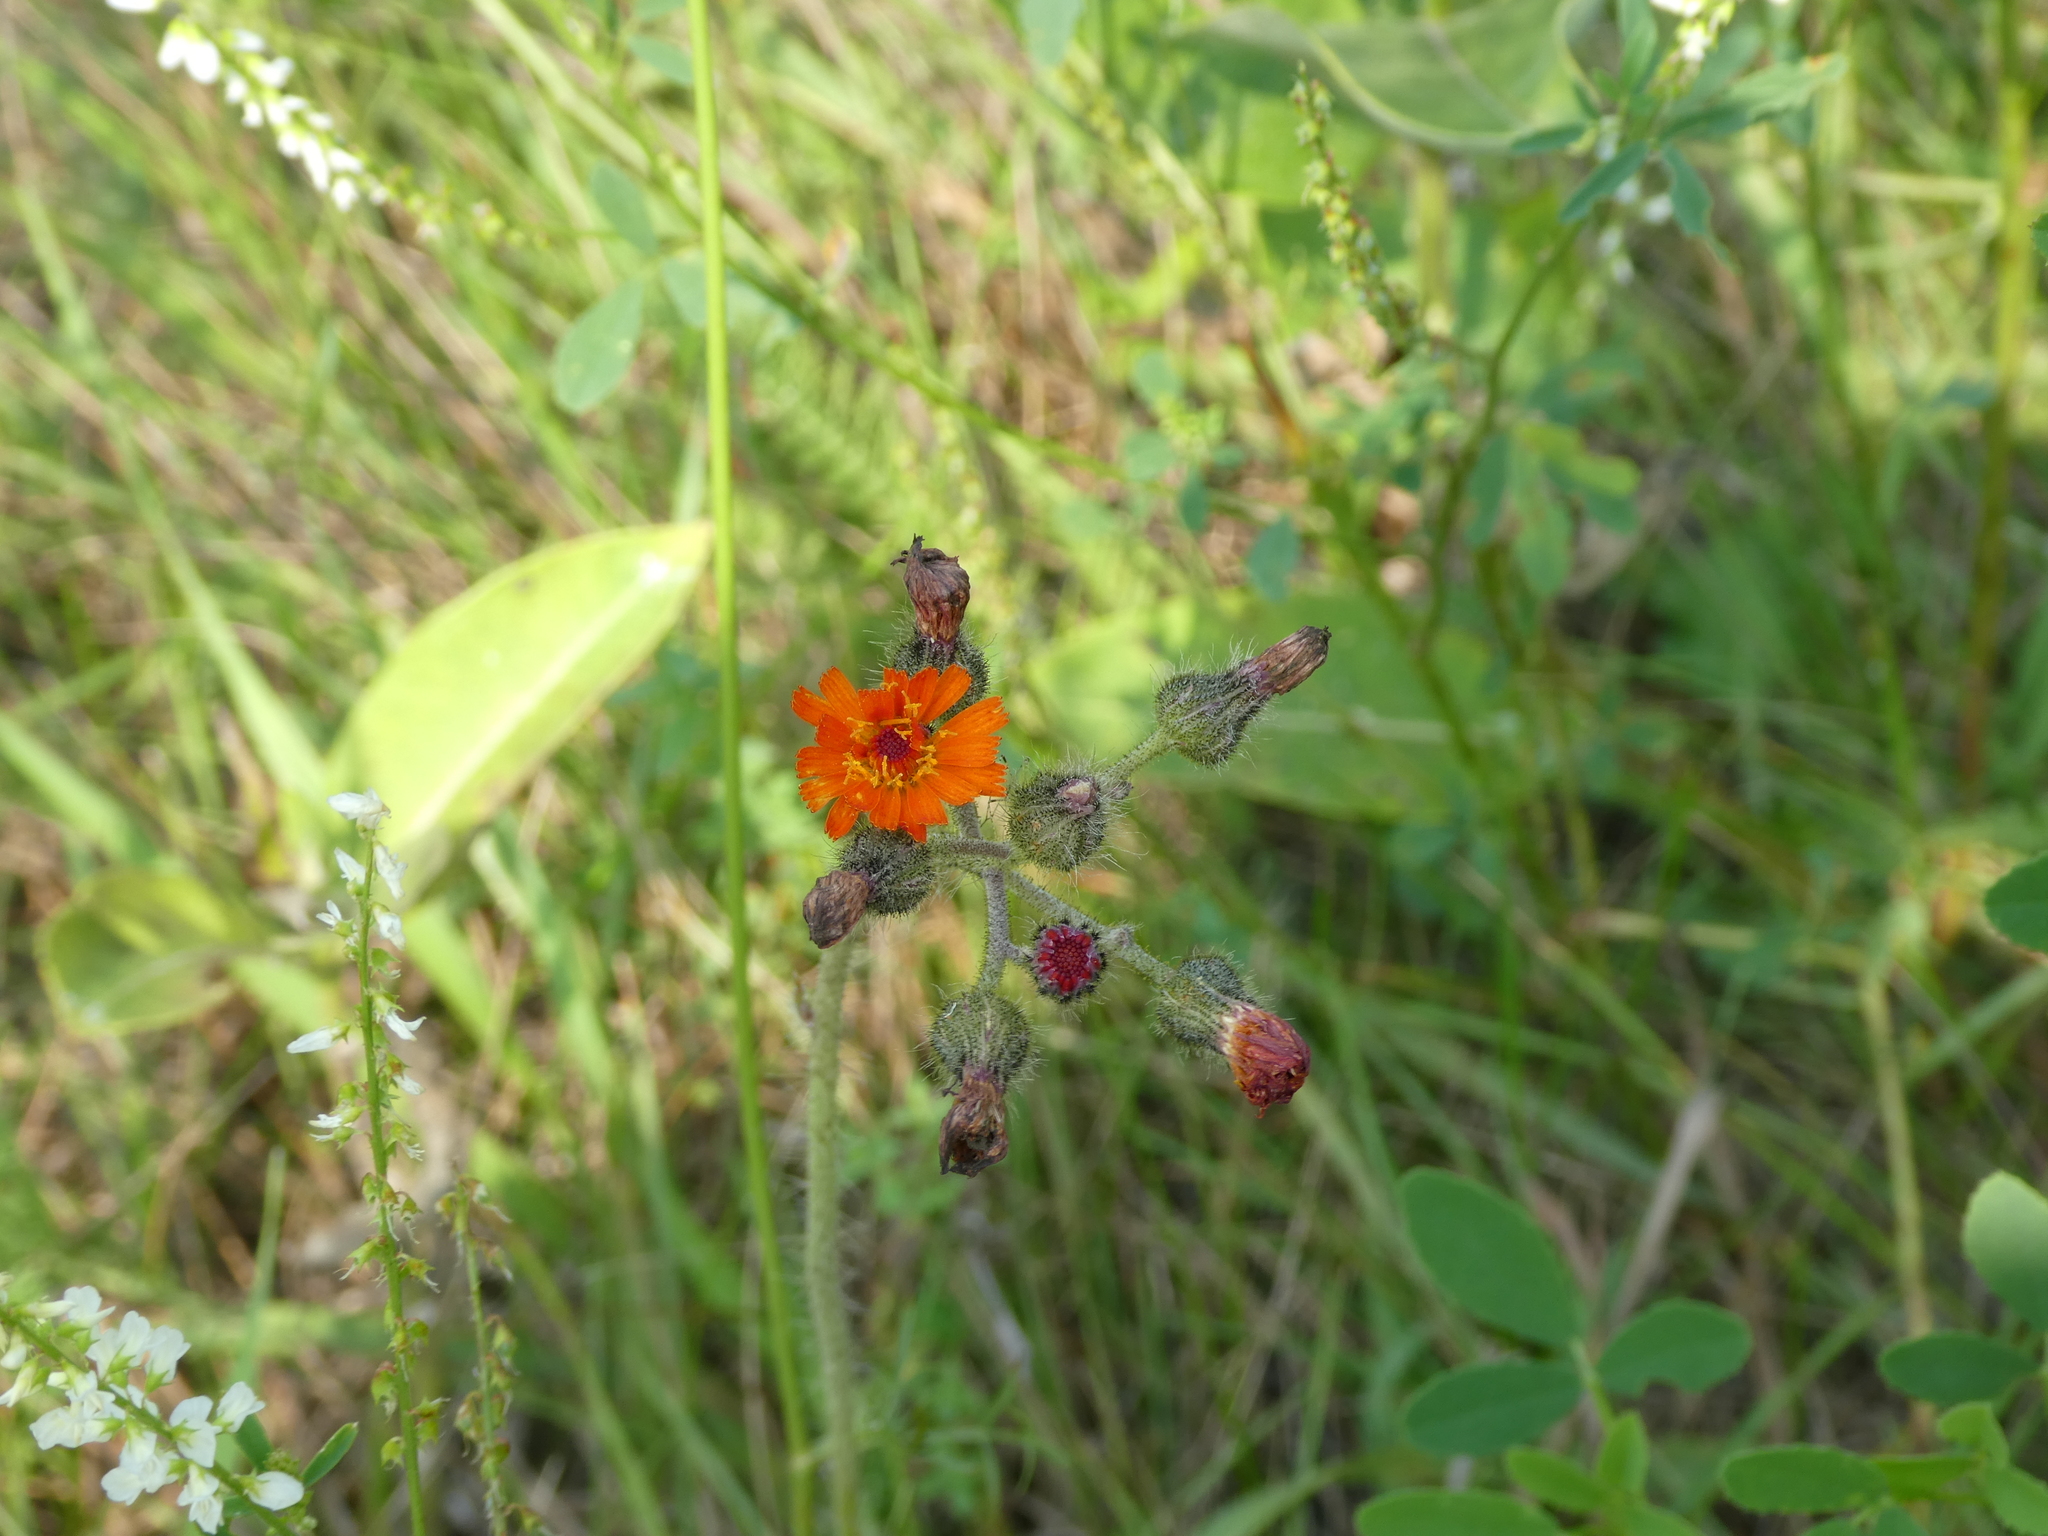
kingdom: Plantae
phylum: Tracheophyta
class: Magnoliopsida
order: Asterales
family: Asteraceae
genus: Pilosella
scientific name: Pilosella aurantiaca
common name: Fox-and-cubs
